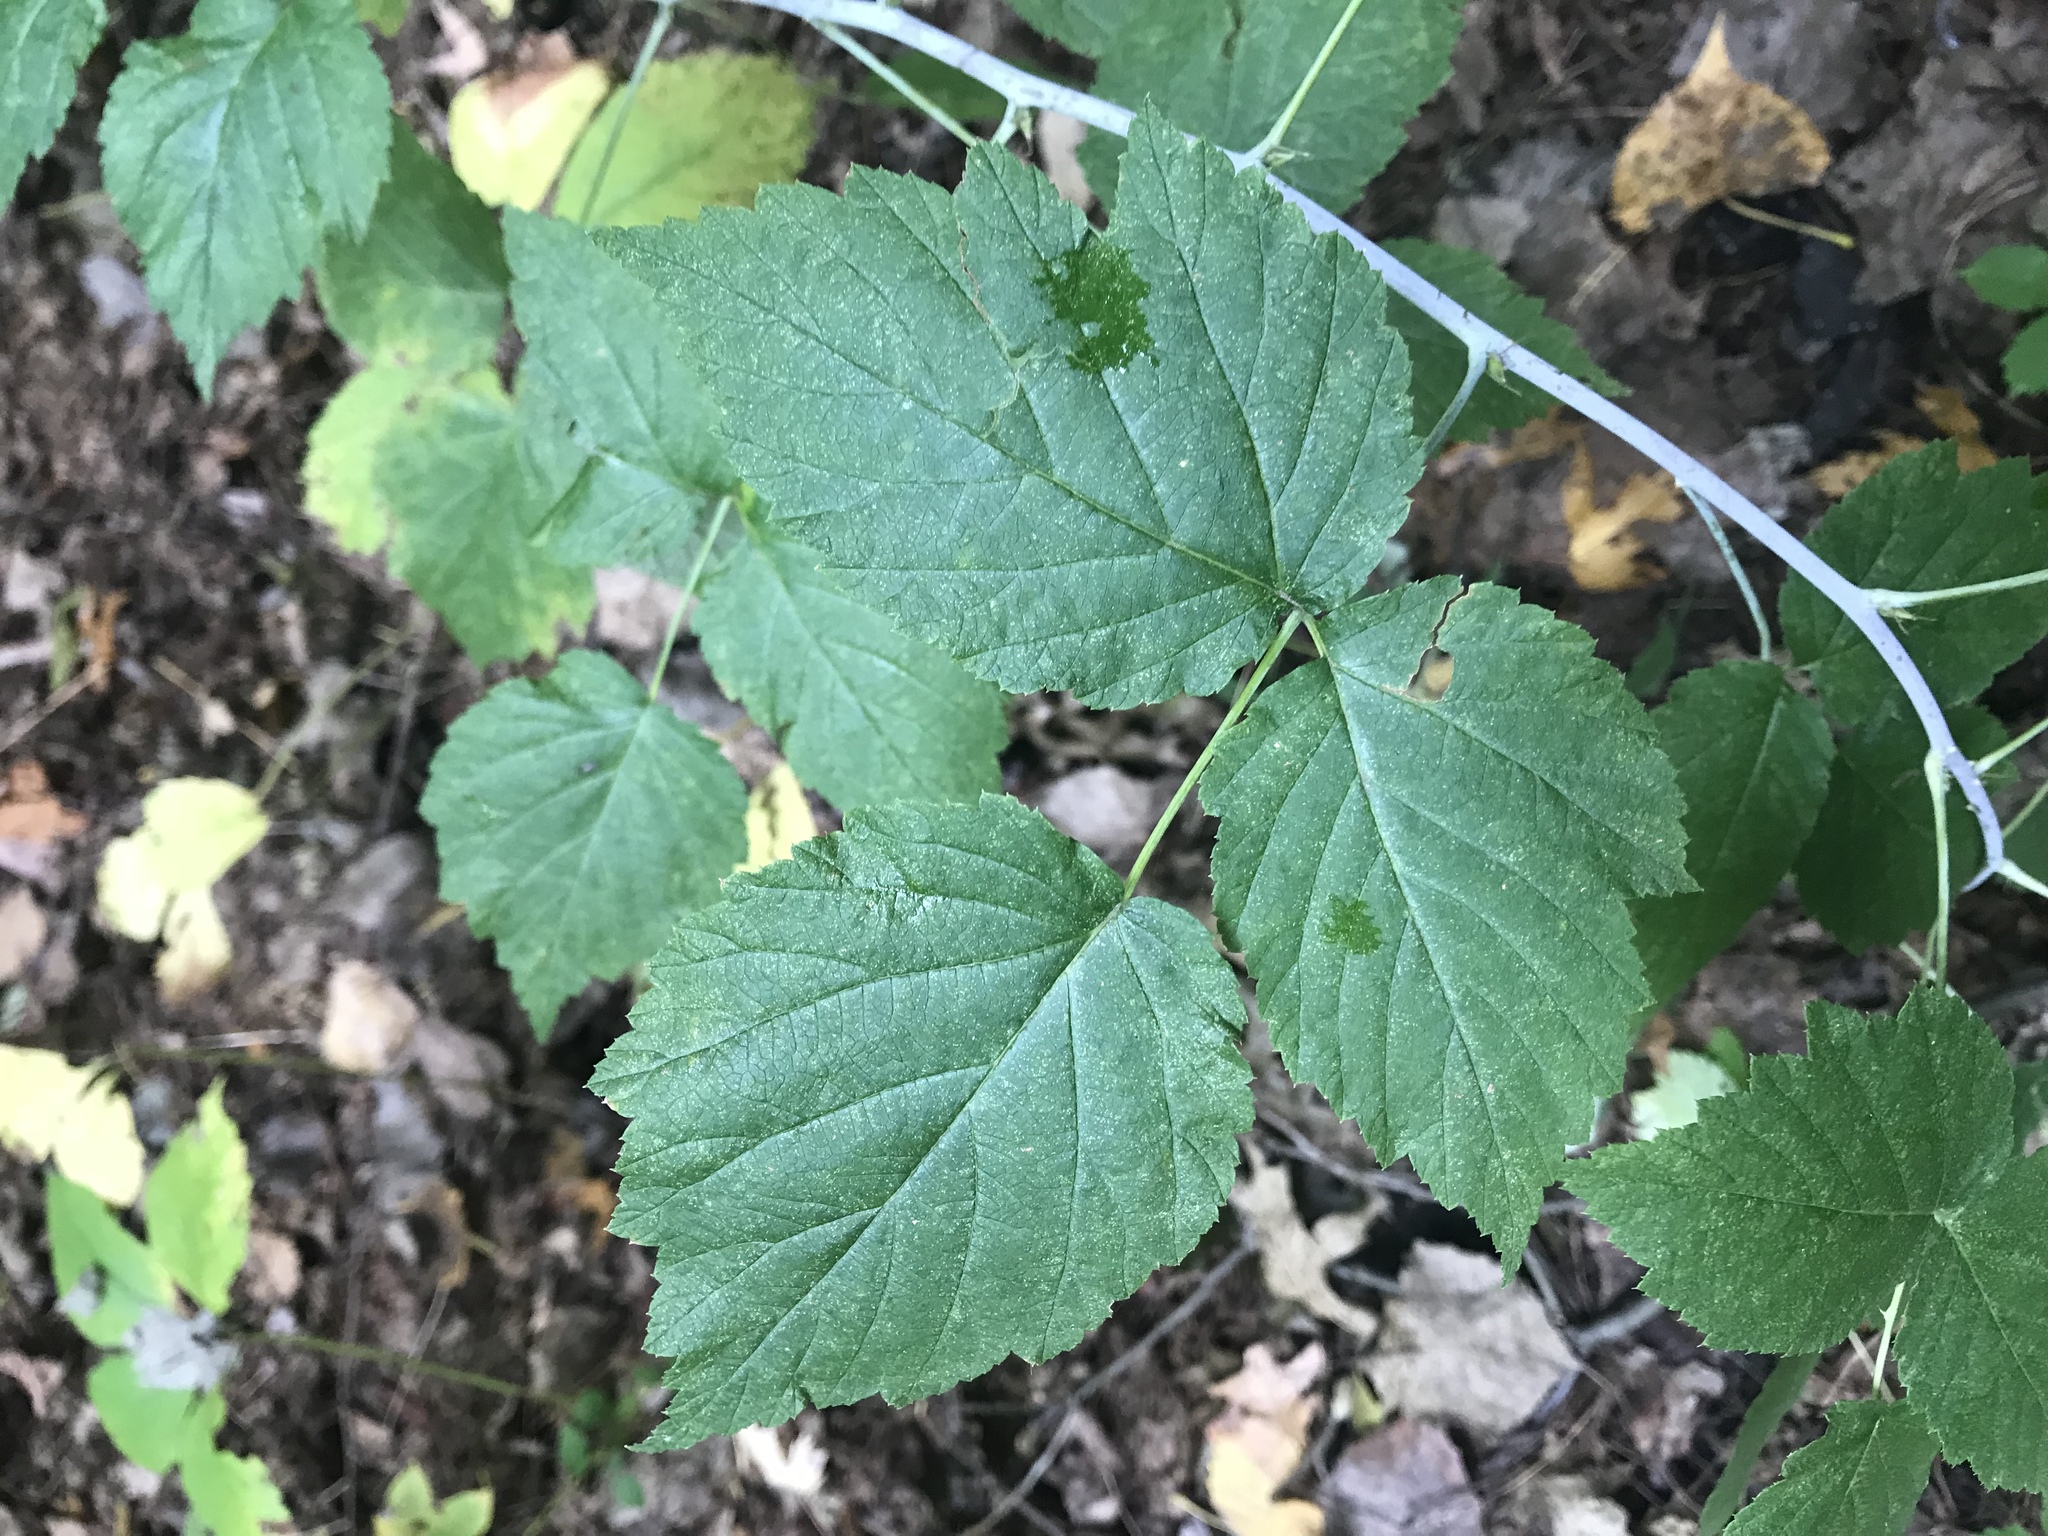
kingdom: Plantae
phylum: Tracheophyta
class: Magnoliopsida
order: Rosales
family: Rosaceae
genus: Rubus
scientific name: Rubus occidentalis
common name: Black raspberry
